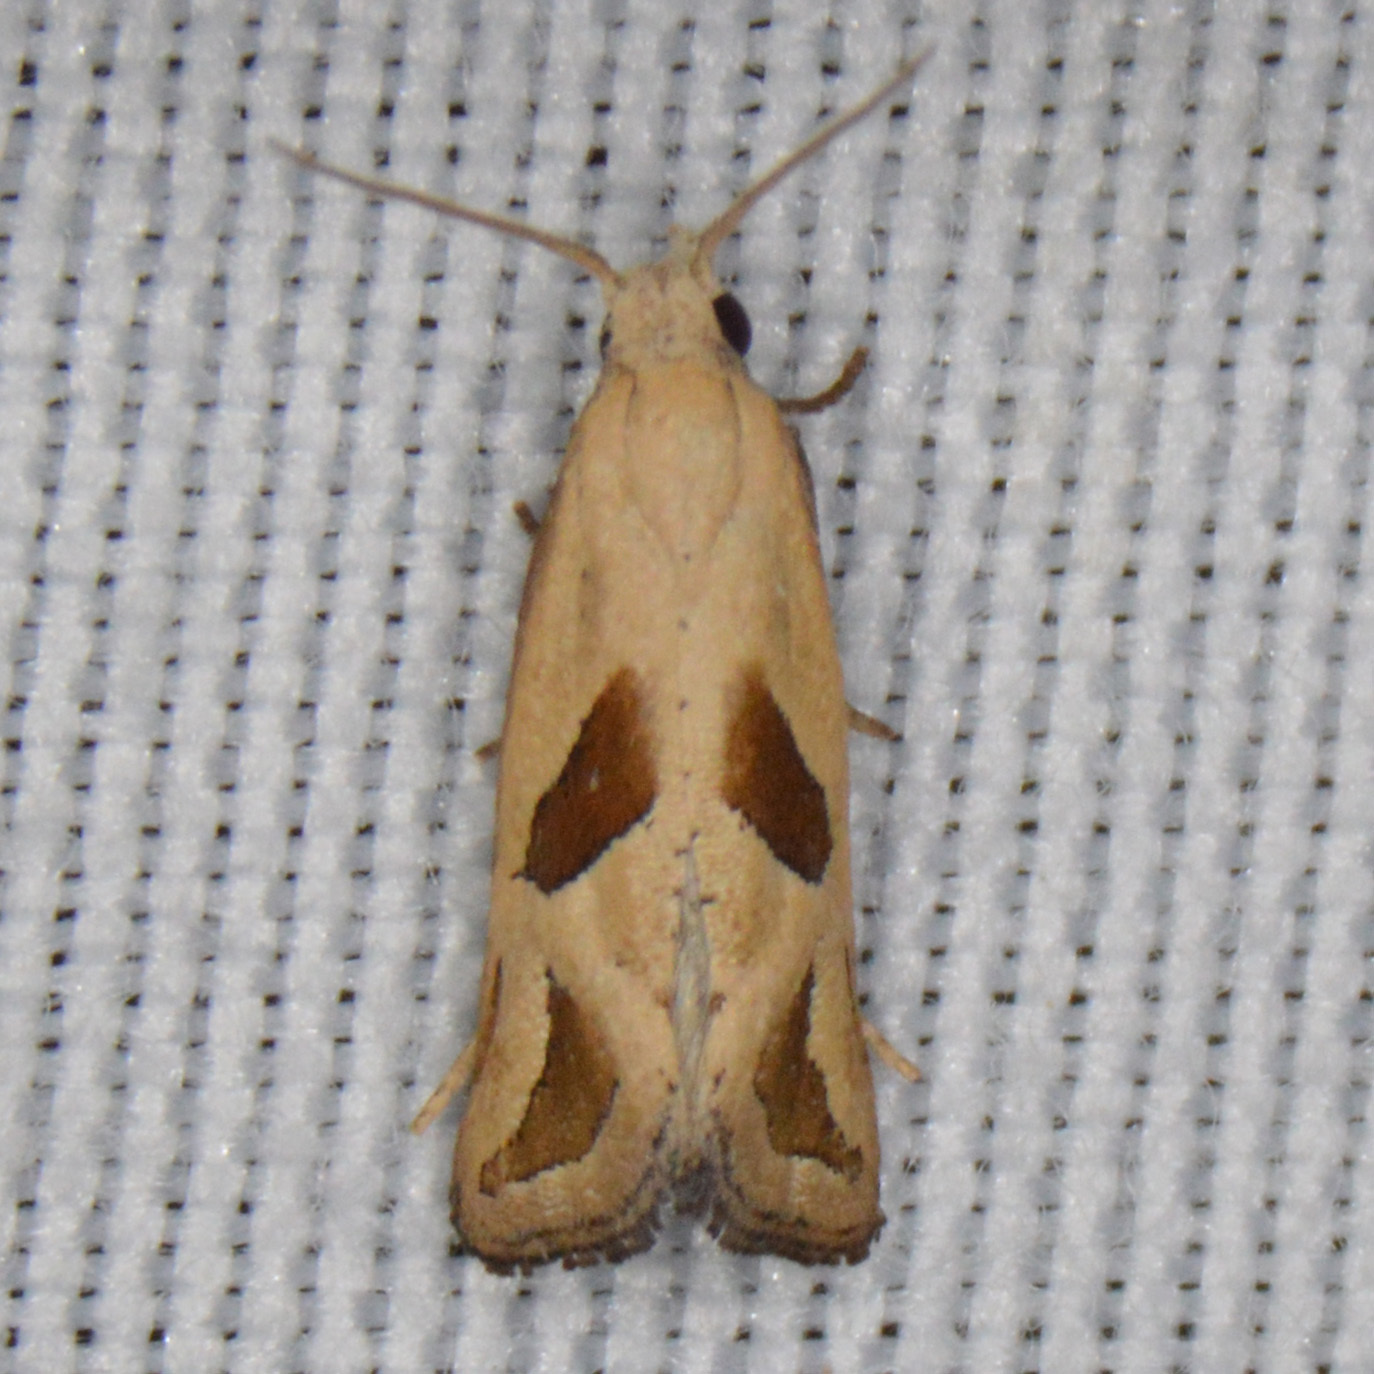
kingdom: Animalia
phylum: Arthropoda
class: Insecta
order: Lepidoptera
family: Tortricidae
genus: Eugnosta
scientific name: Eugnosta bimaculana
